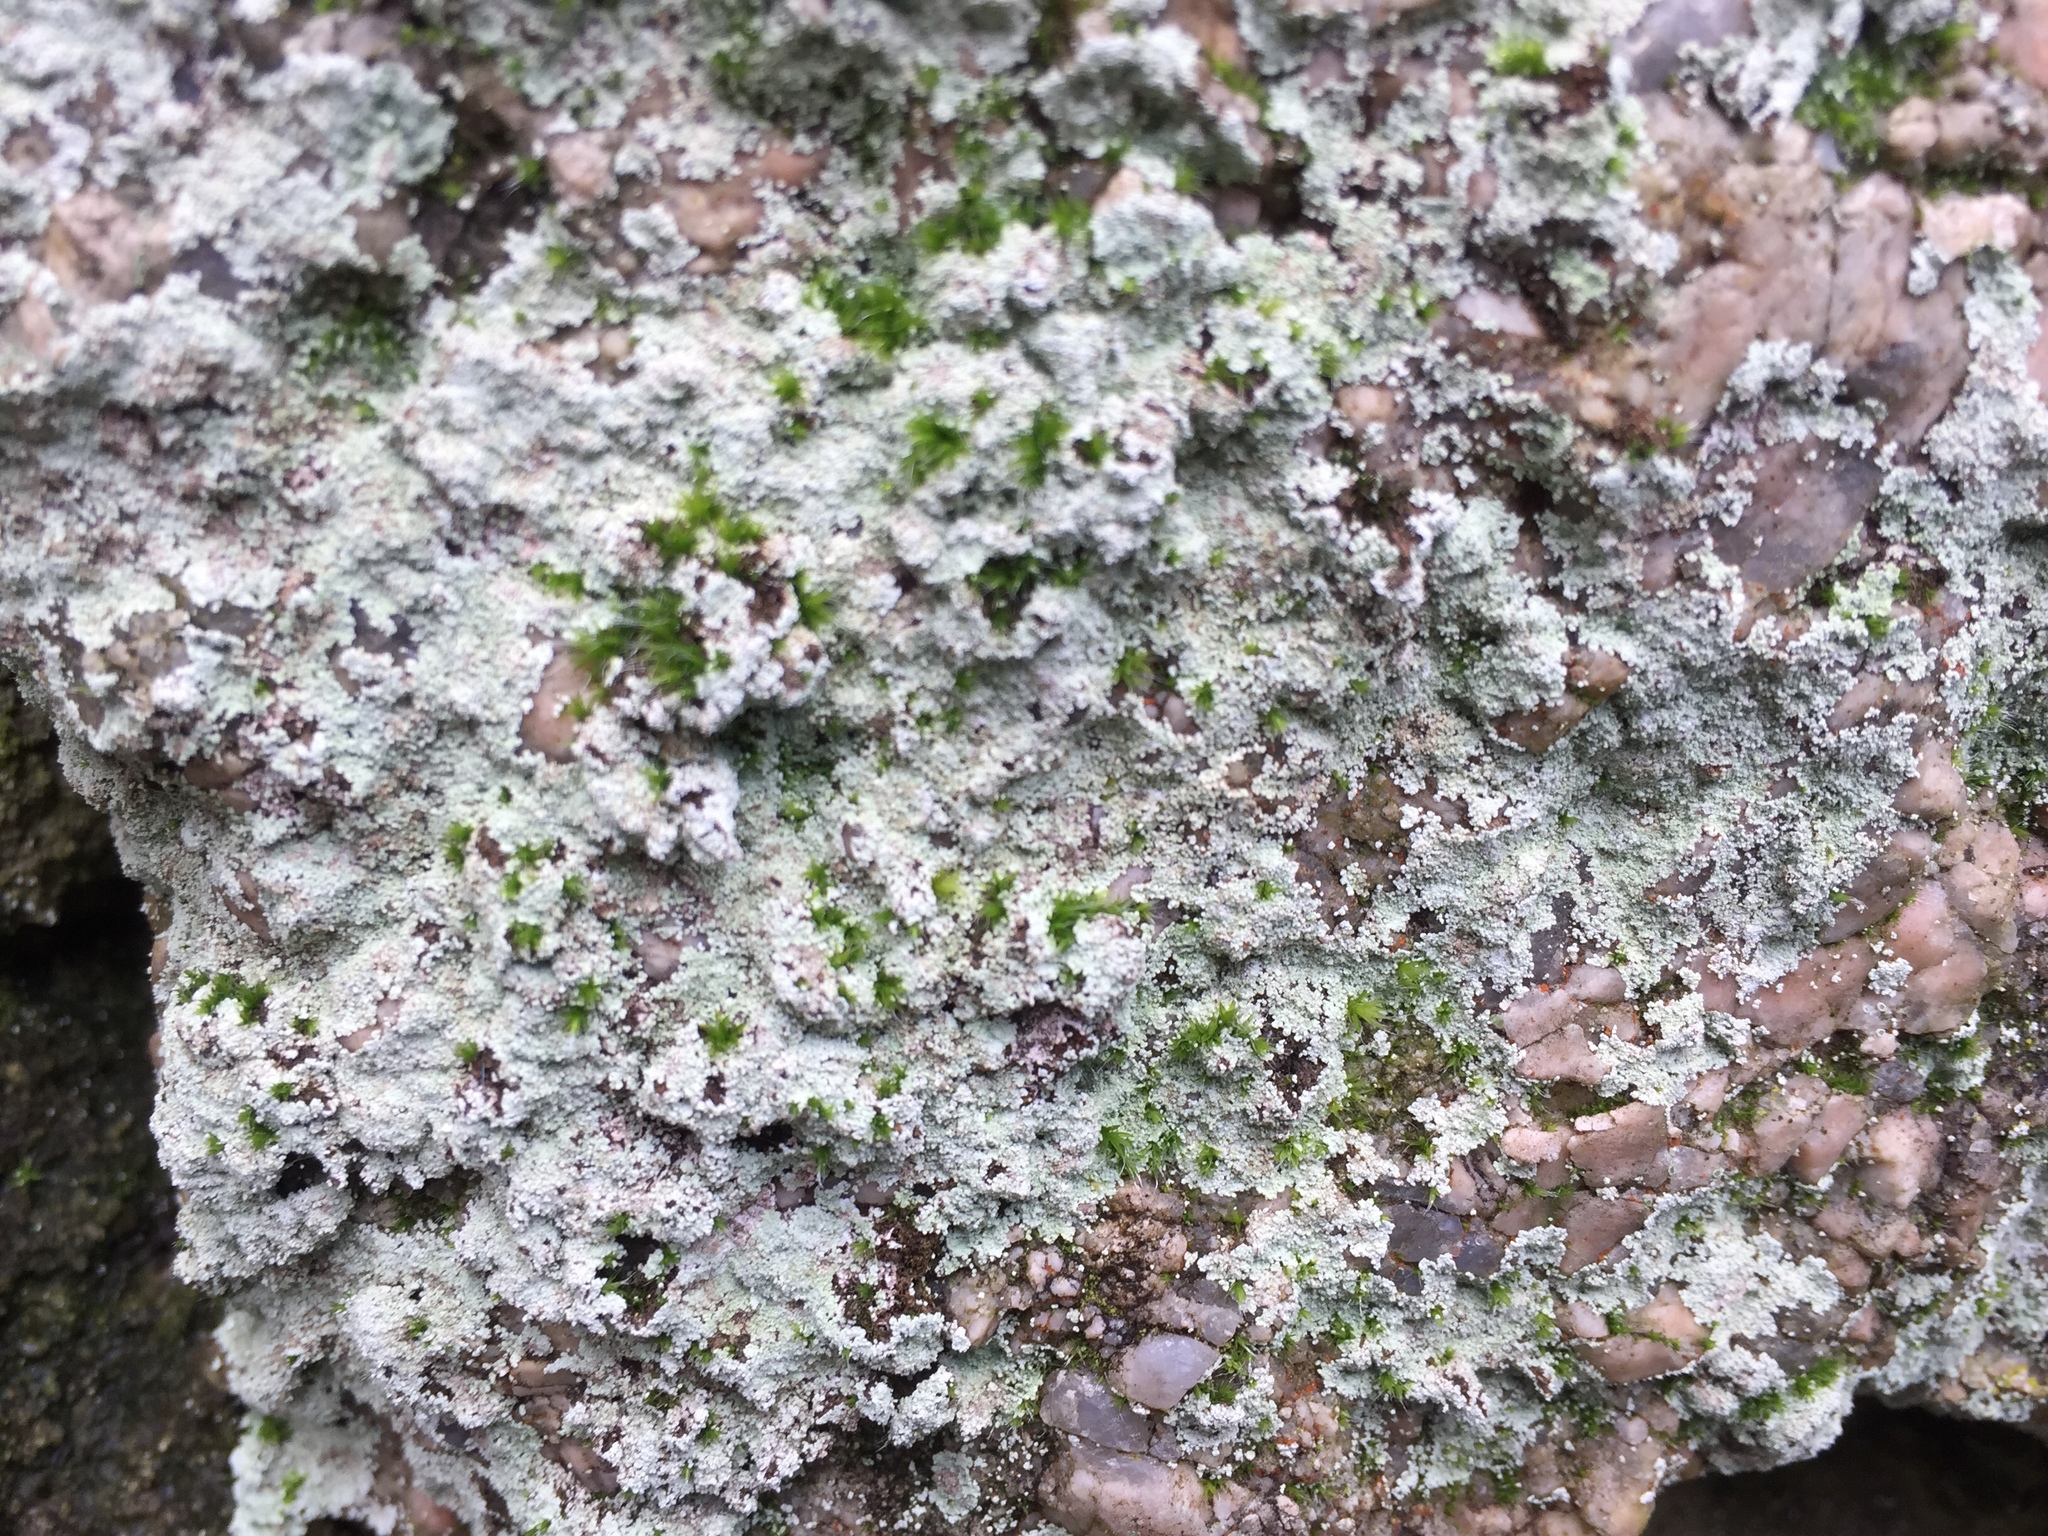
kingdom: Fungi
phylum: Ascomycota
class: Lecanoromycetes
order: Lecanorales
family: Stereocaulaceae
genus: Lepraria
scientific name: Lepraria
